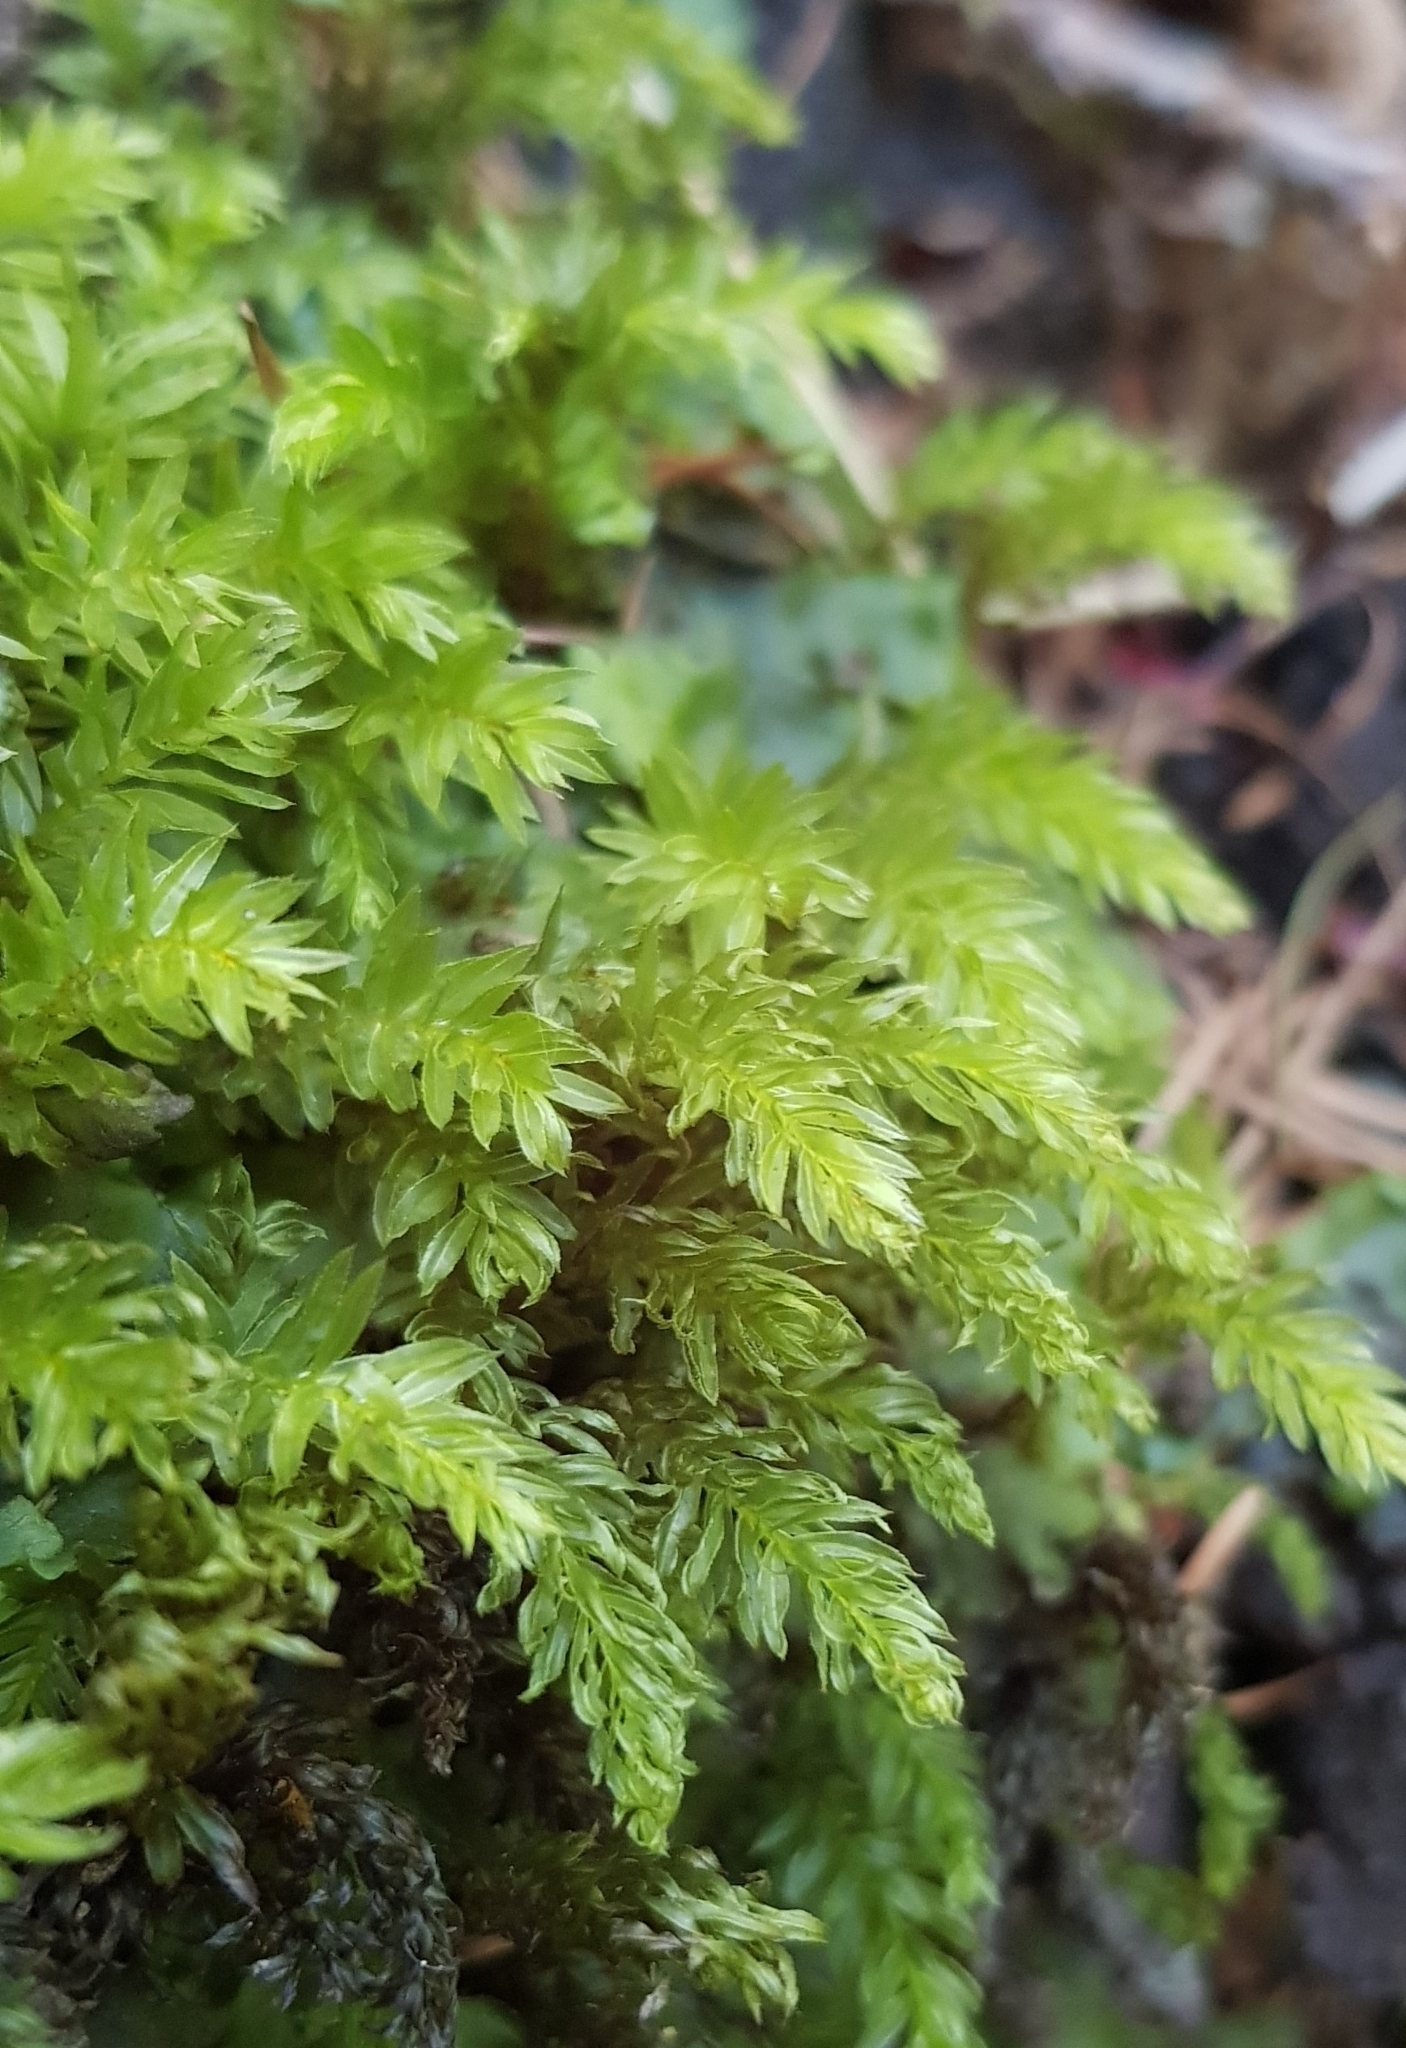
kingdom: Plantae
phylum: Bryophyta
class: Bryopsida
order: Bryales
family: Mniaceae
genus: Mnium
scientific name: Mnium hornum
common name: Swan's-neck leafy moss
